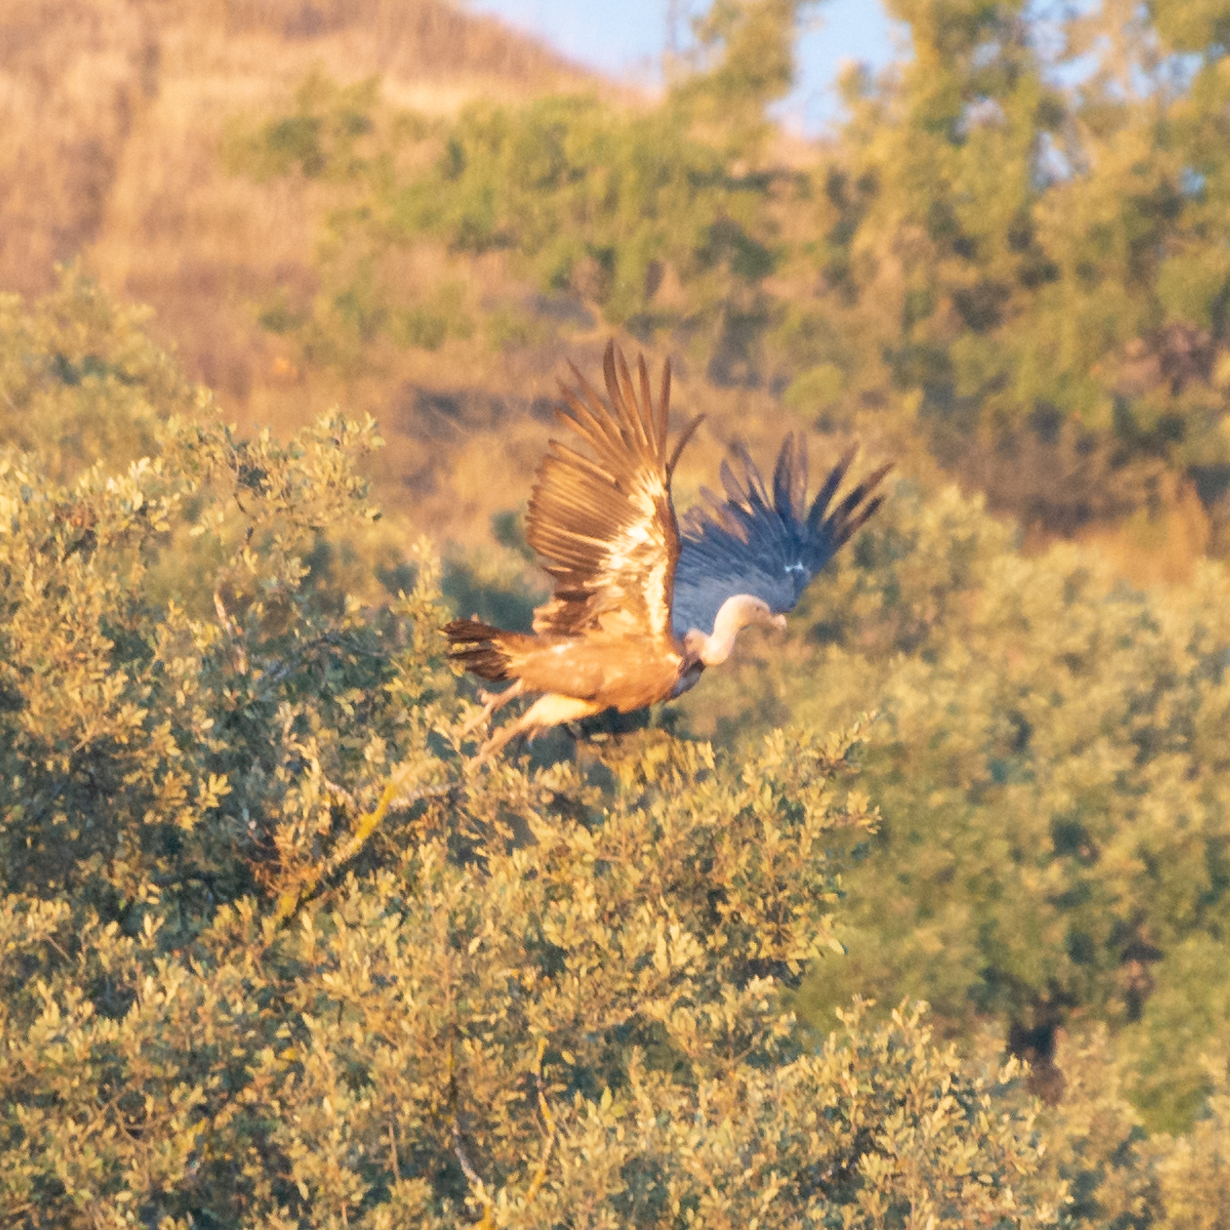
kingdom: Animalia
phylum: Chordata
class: Aves
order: Accipitriformes
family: Accipitridae
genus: Gyps
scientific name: Gyps fulvus
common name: Griffon vulture
